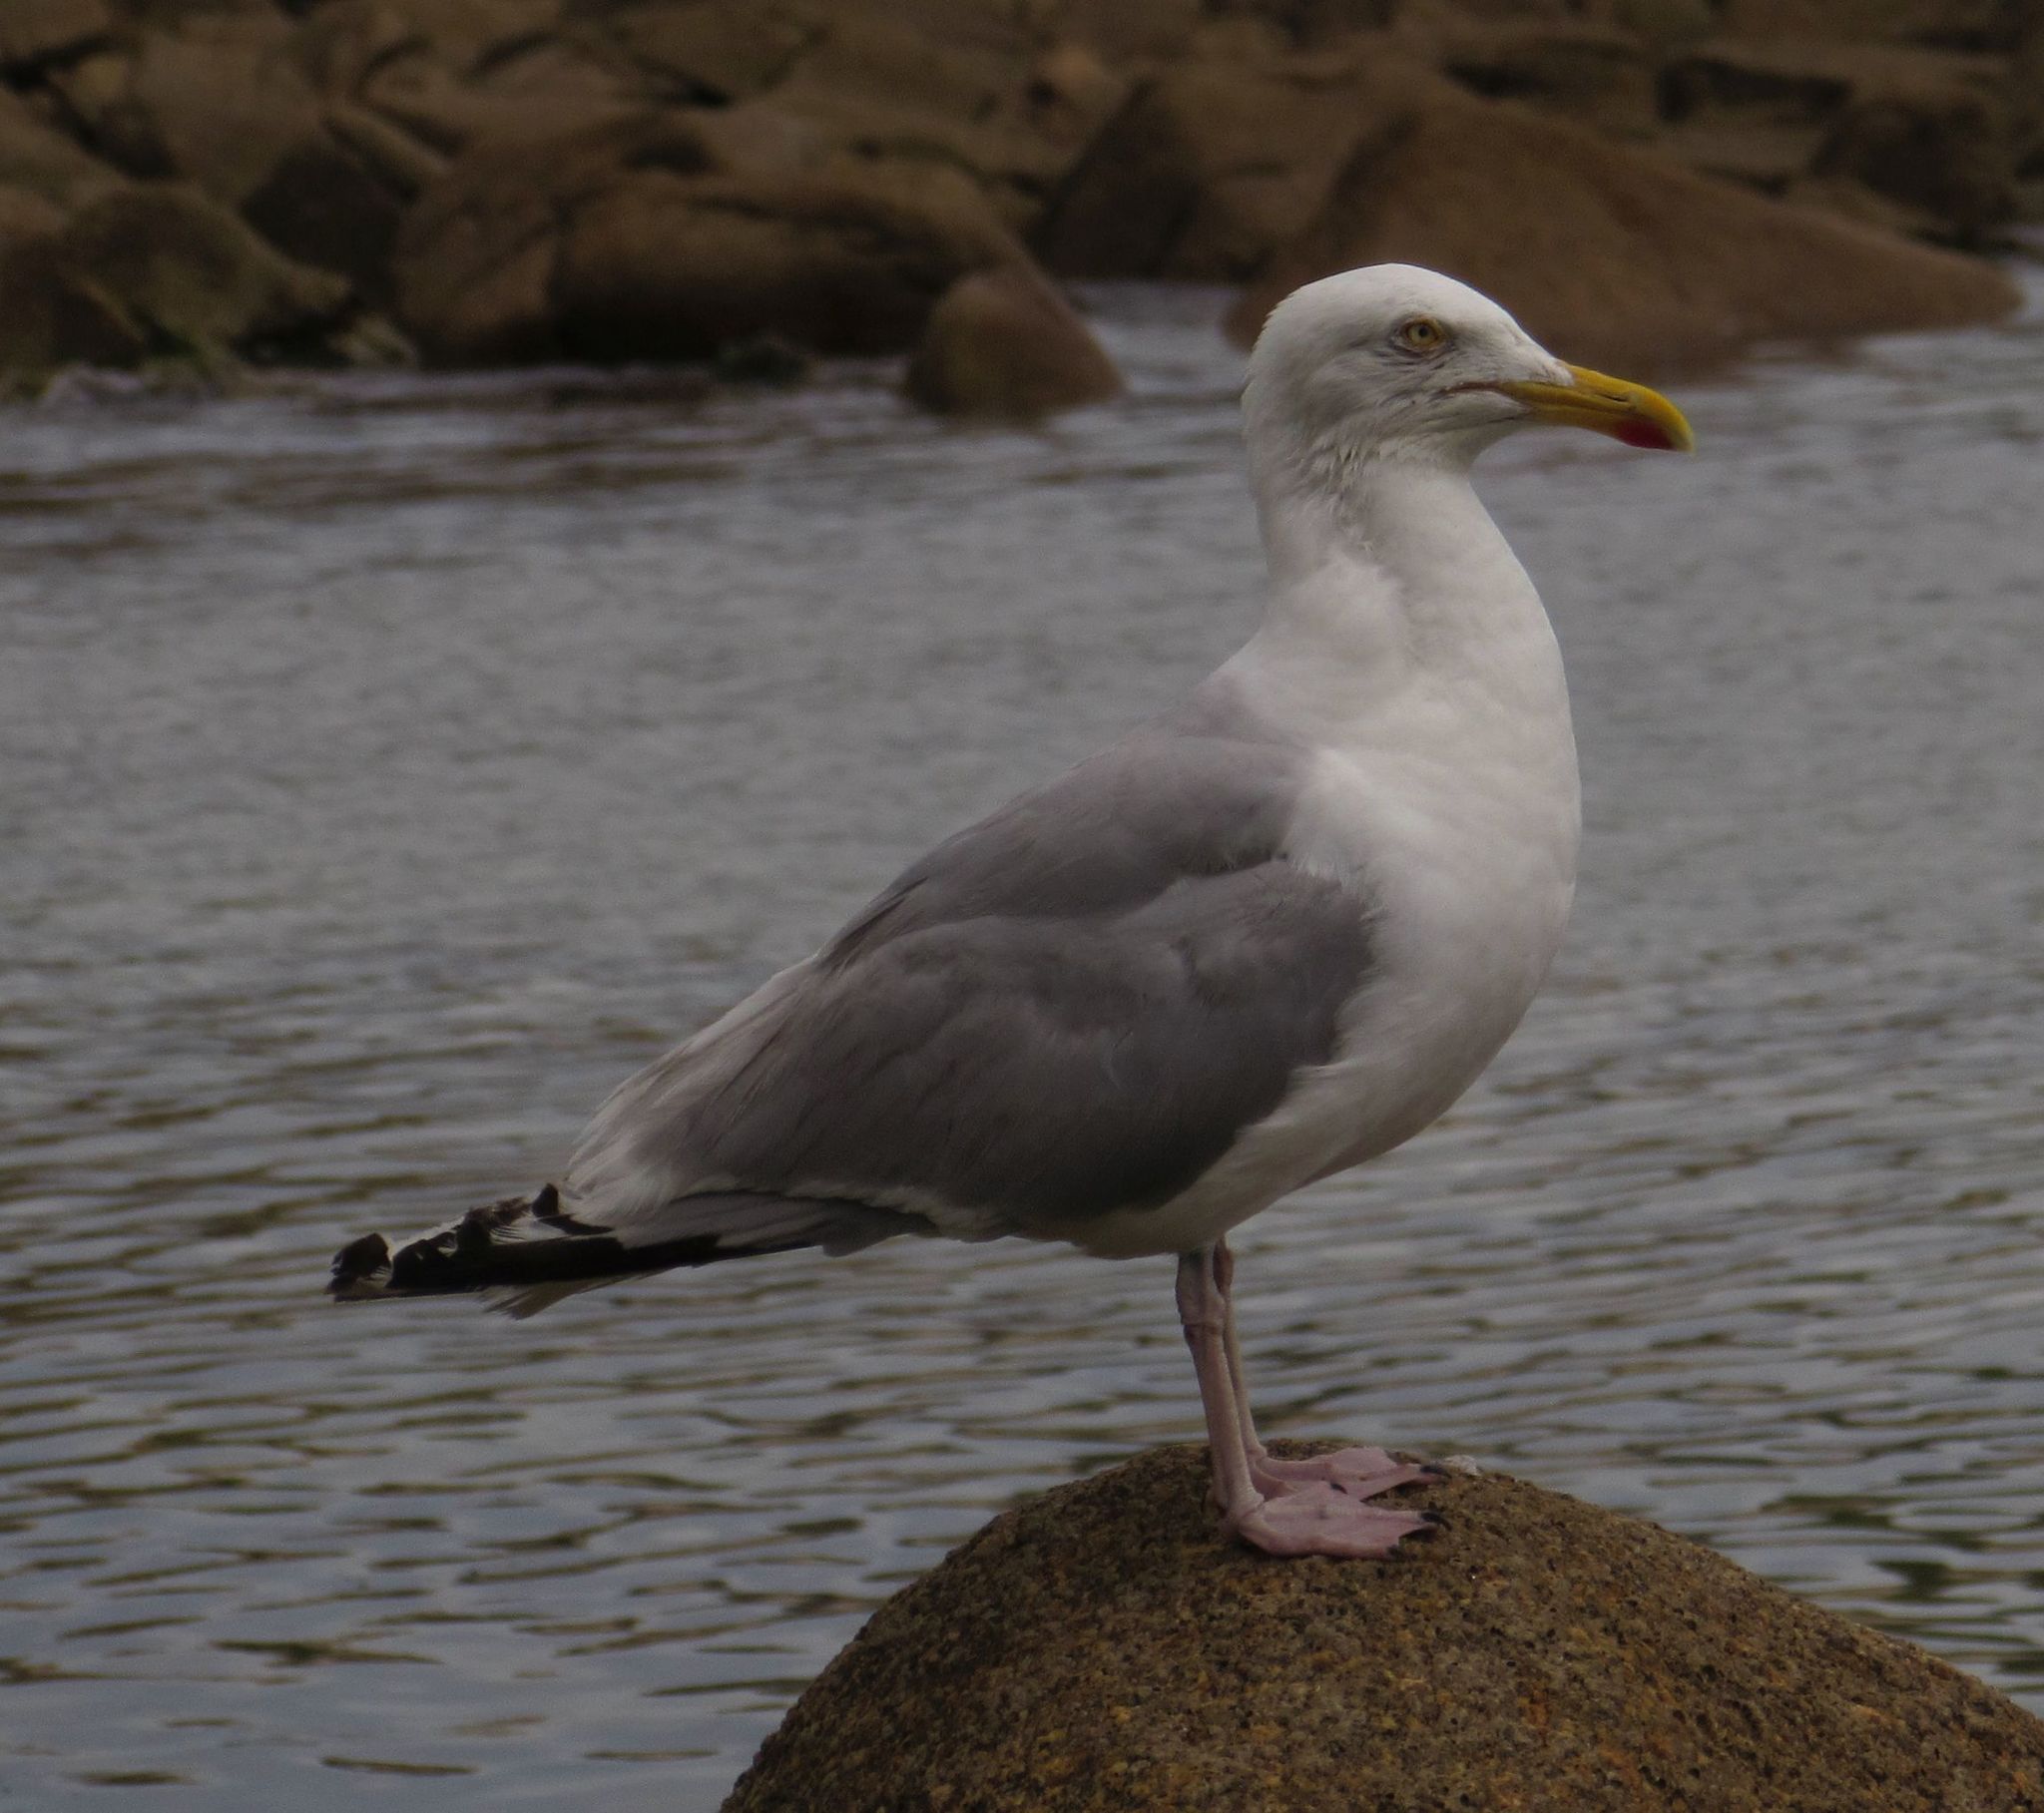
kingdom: Animalia
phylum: Chordata
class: Aves
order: Charadriiformes
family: Laridae
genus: Larus
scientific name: Larus argentatus
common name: Herring gull
